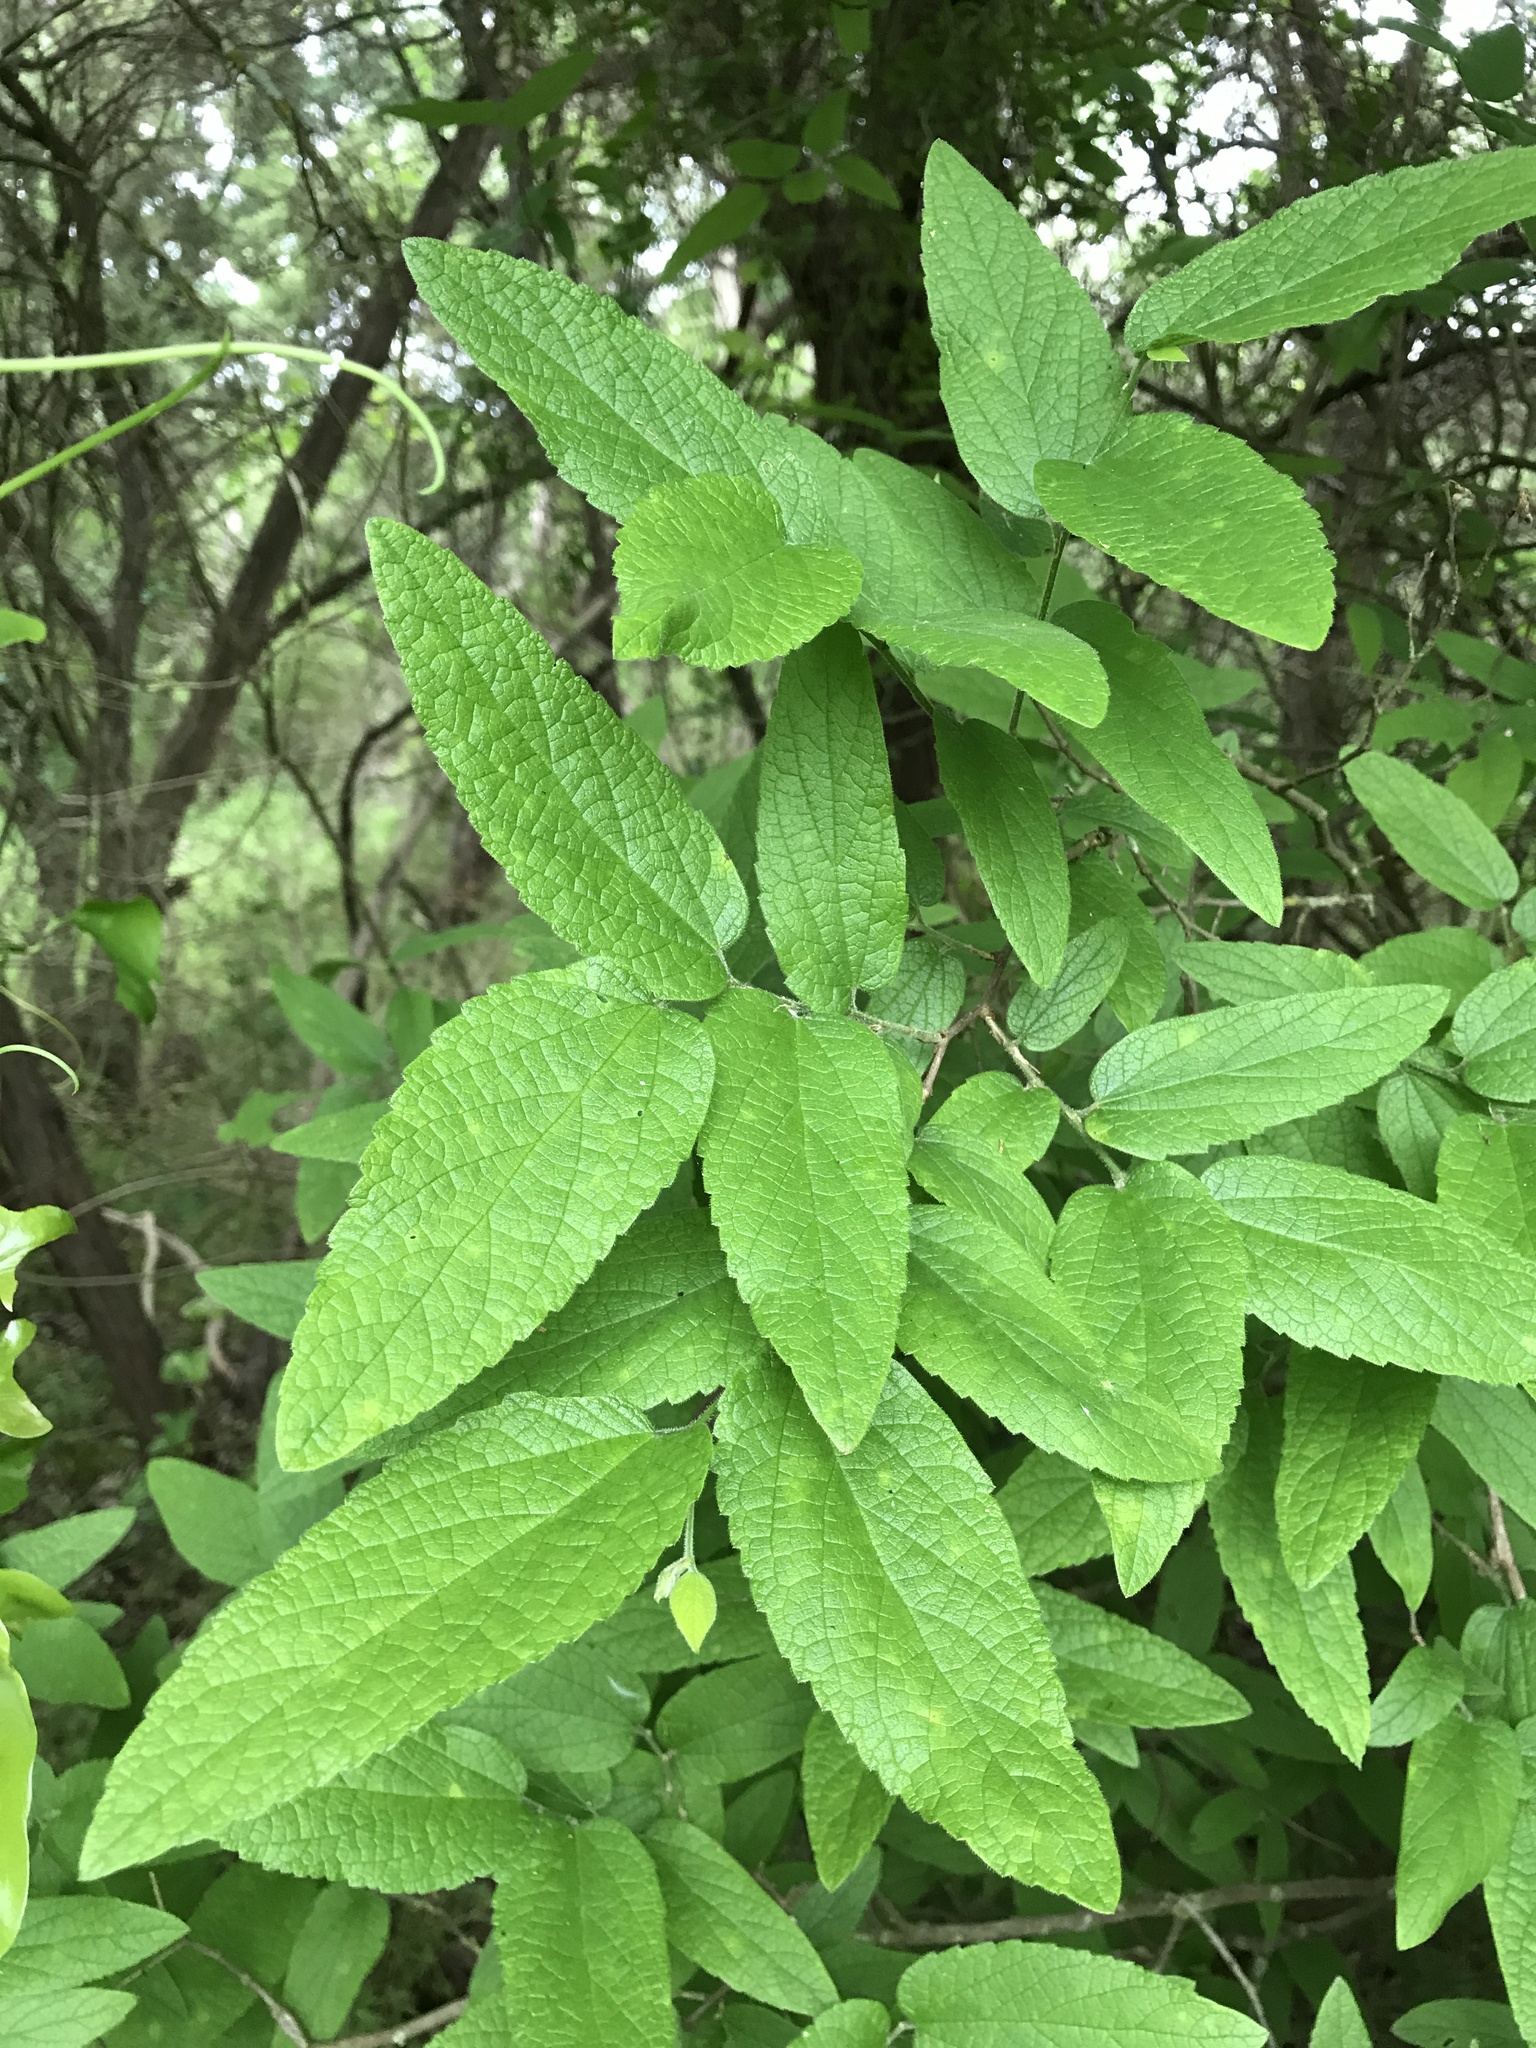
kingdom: Plantae
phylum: Tracheophyta
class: Magnoliopsida
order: Rosales
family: Cannabaceae
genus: Celtis
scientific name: Celtis reticulata
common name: Netleaf hackberry
